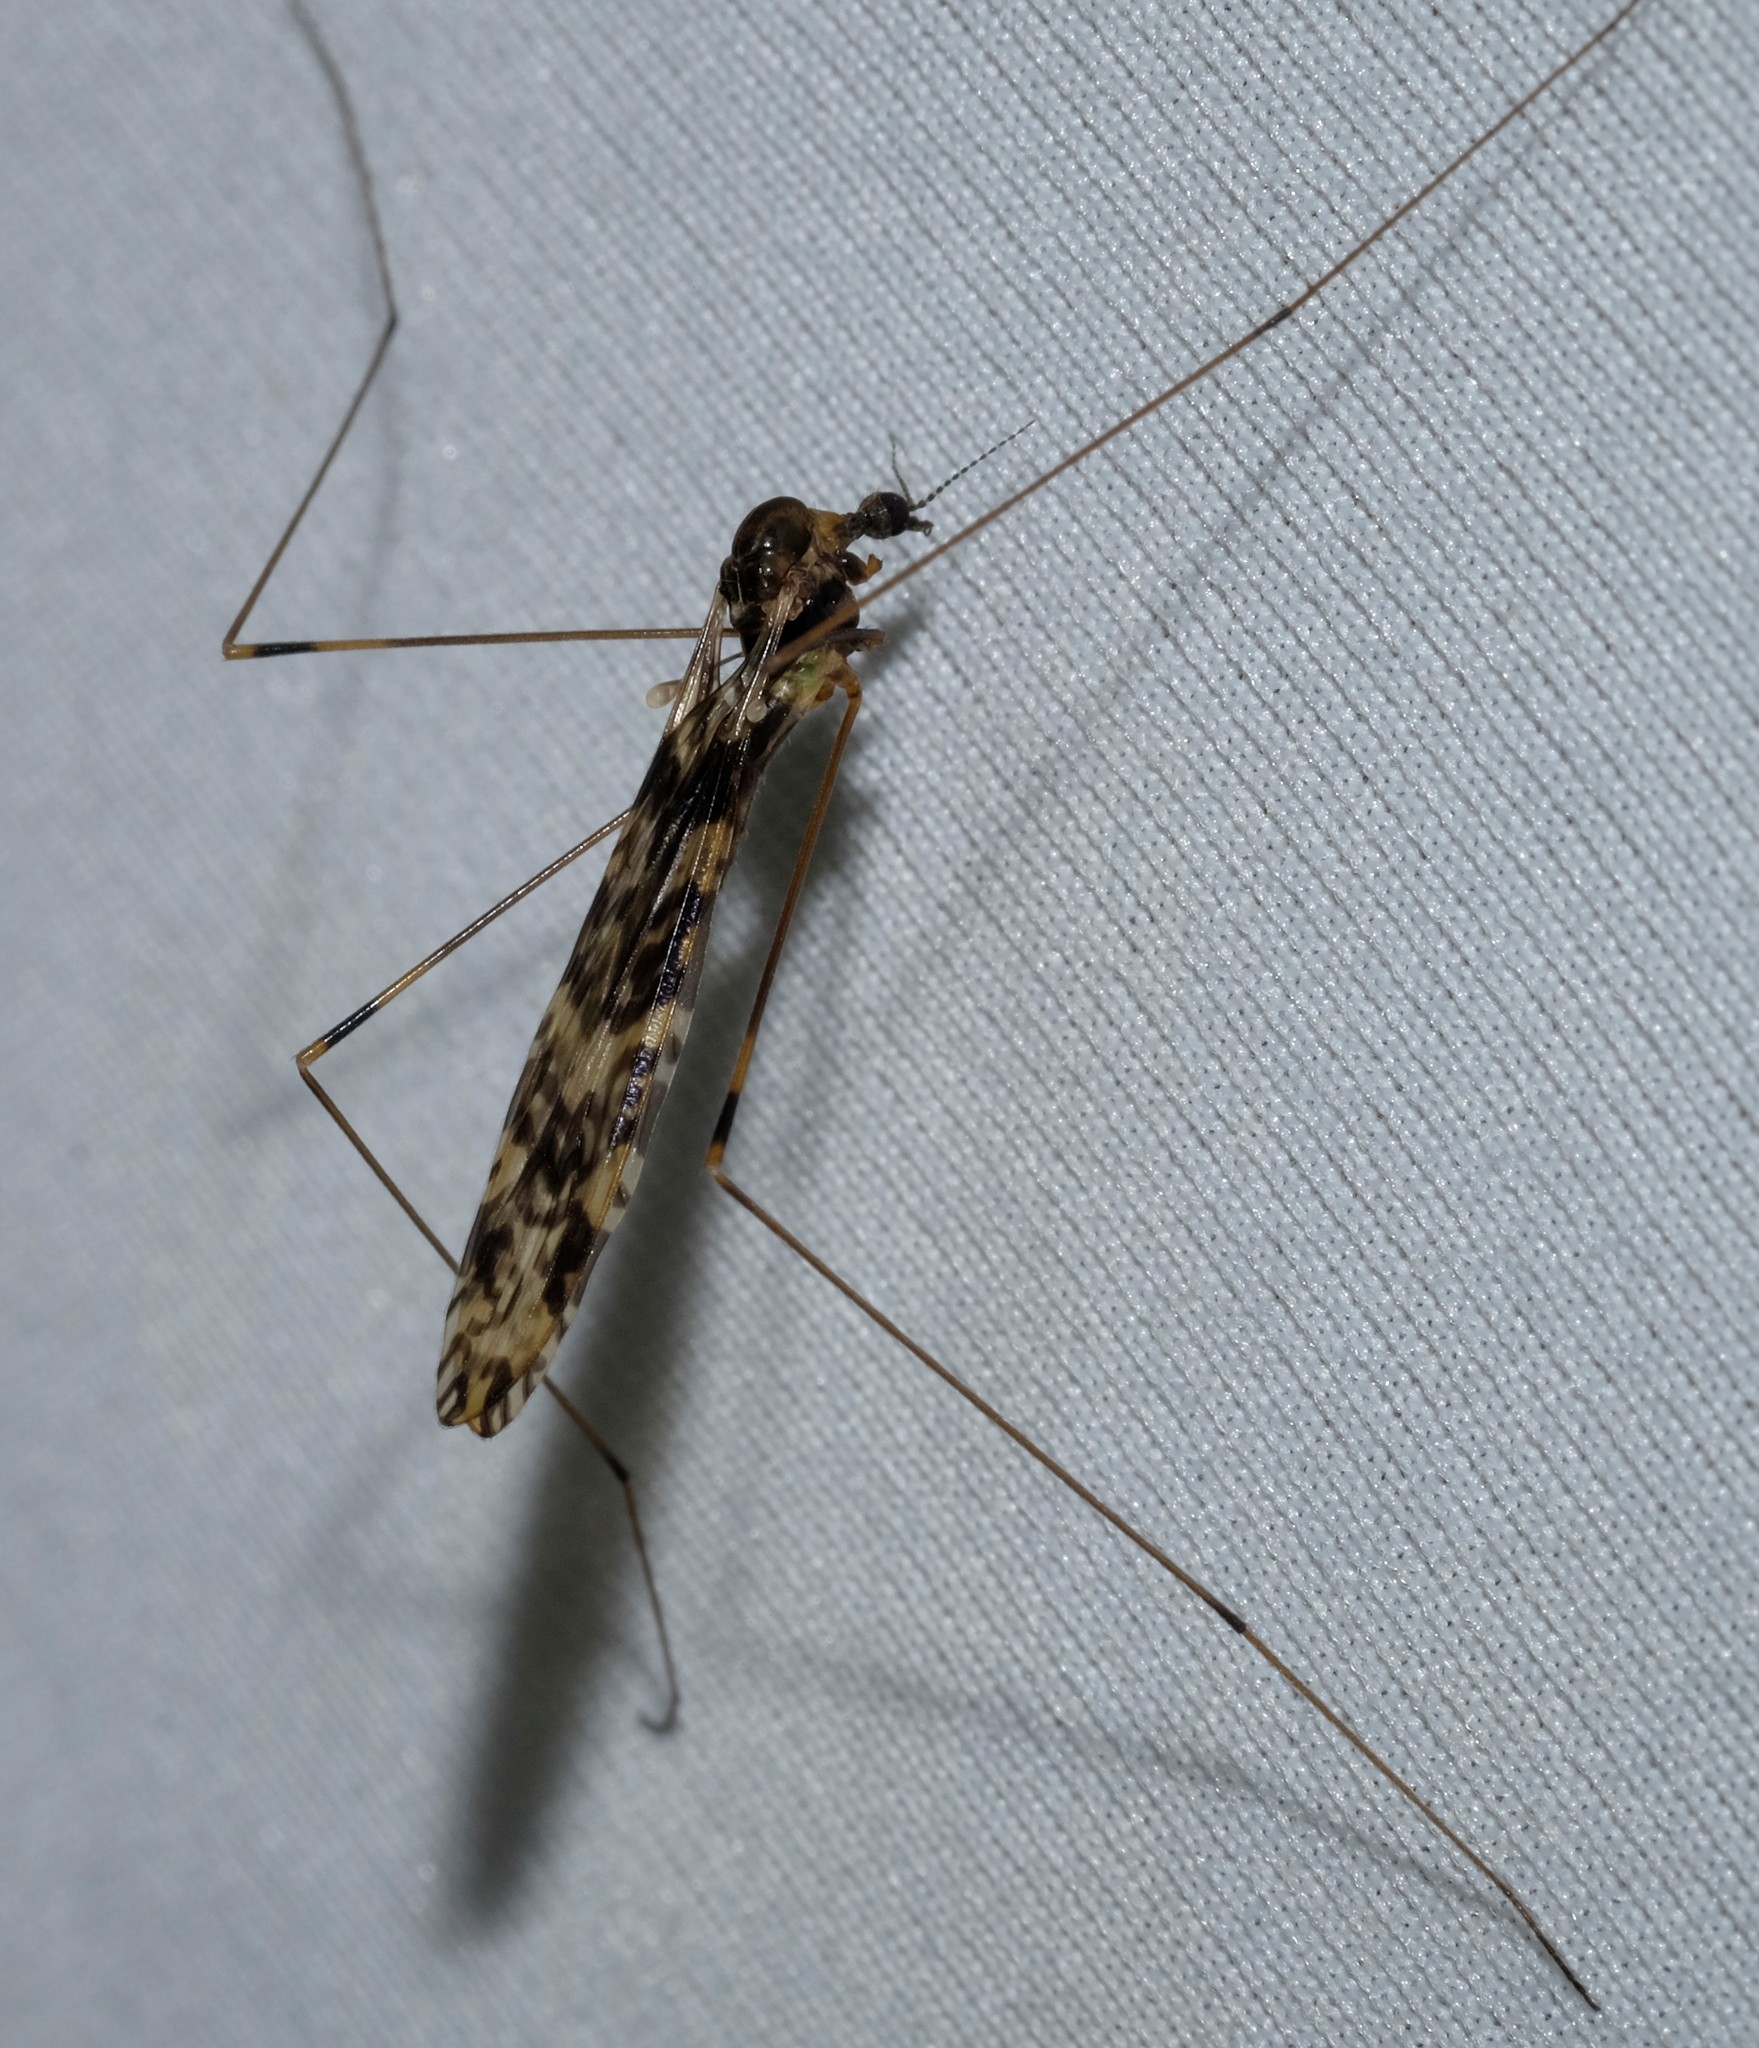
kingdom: Animalia
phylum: Arthropoda
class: Insecta
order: Diptera
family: Limoniidae
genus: Discobola
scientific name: Discobola australis
